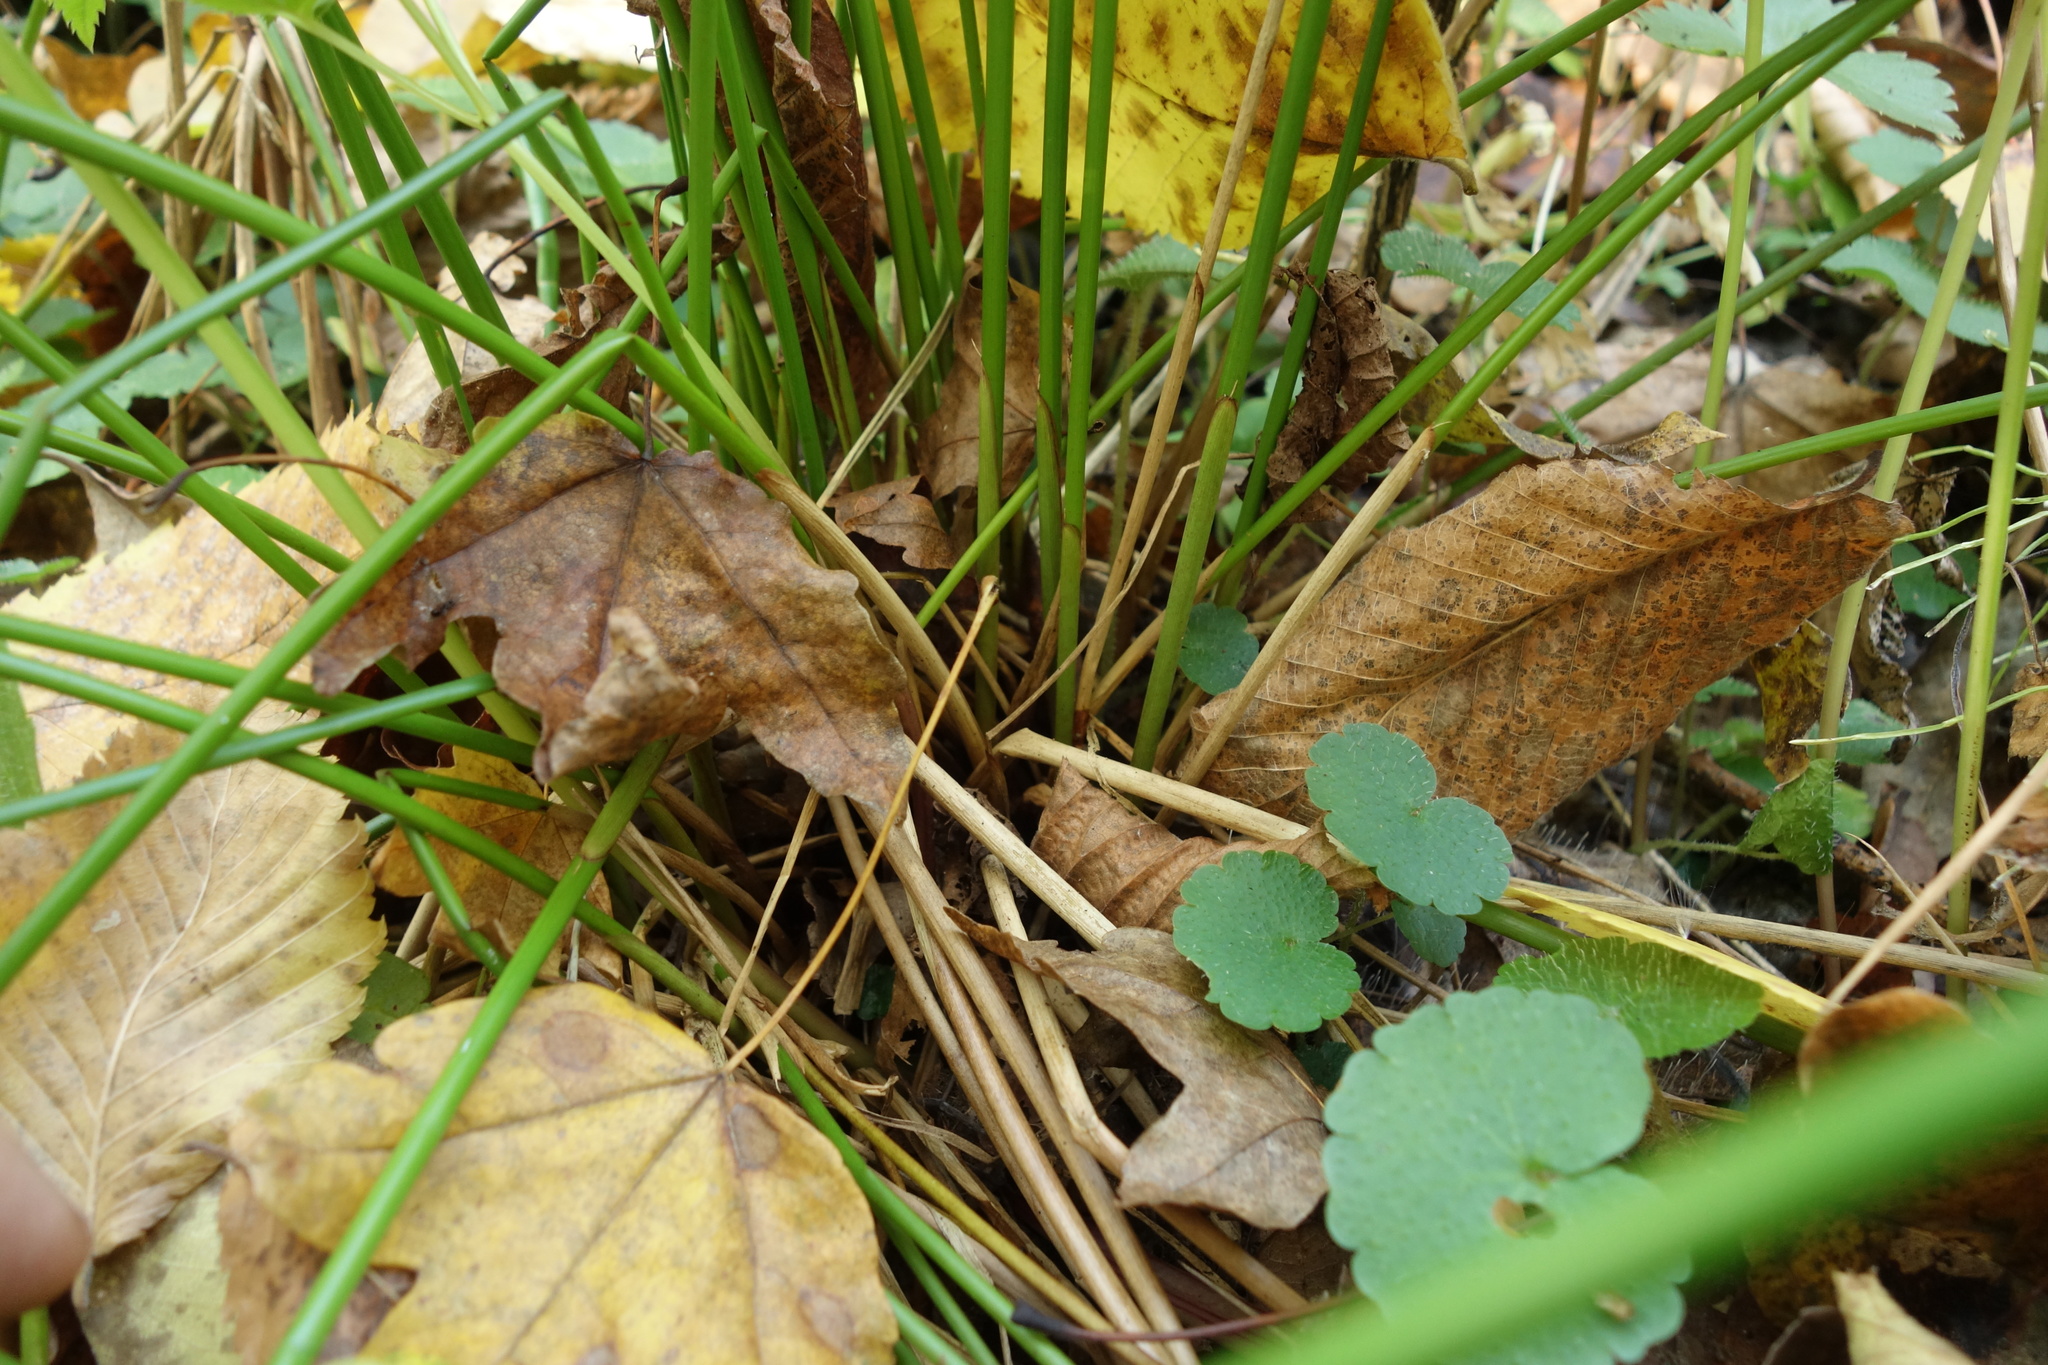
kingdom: Plantae
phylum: Tracheophyta
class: Liliopsida
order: Poales
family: Juncaceae
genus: Juncus
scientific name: Juncus effusus
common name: Soft rush
